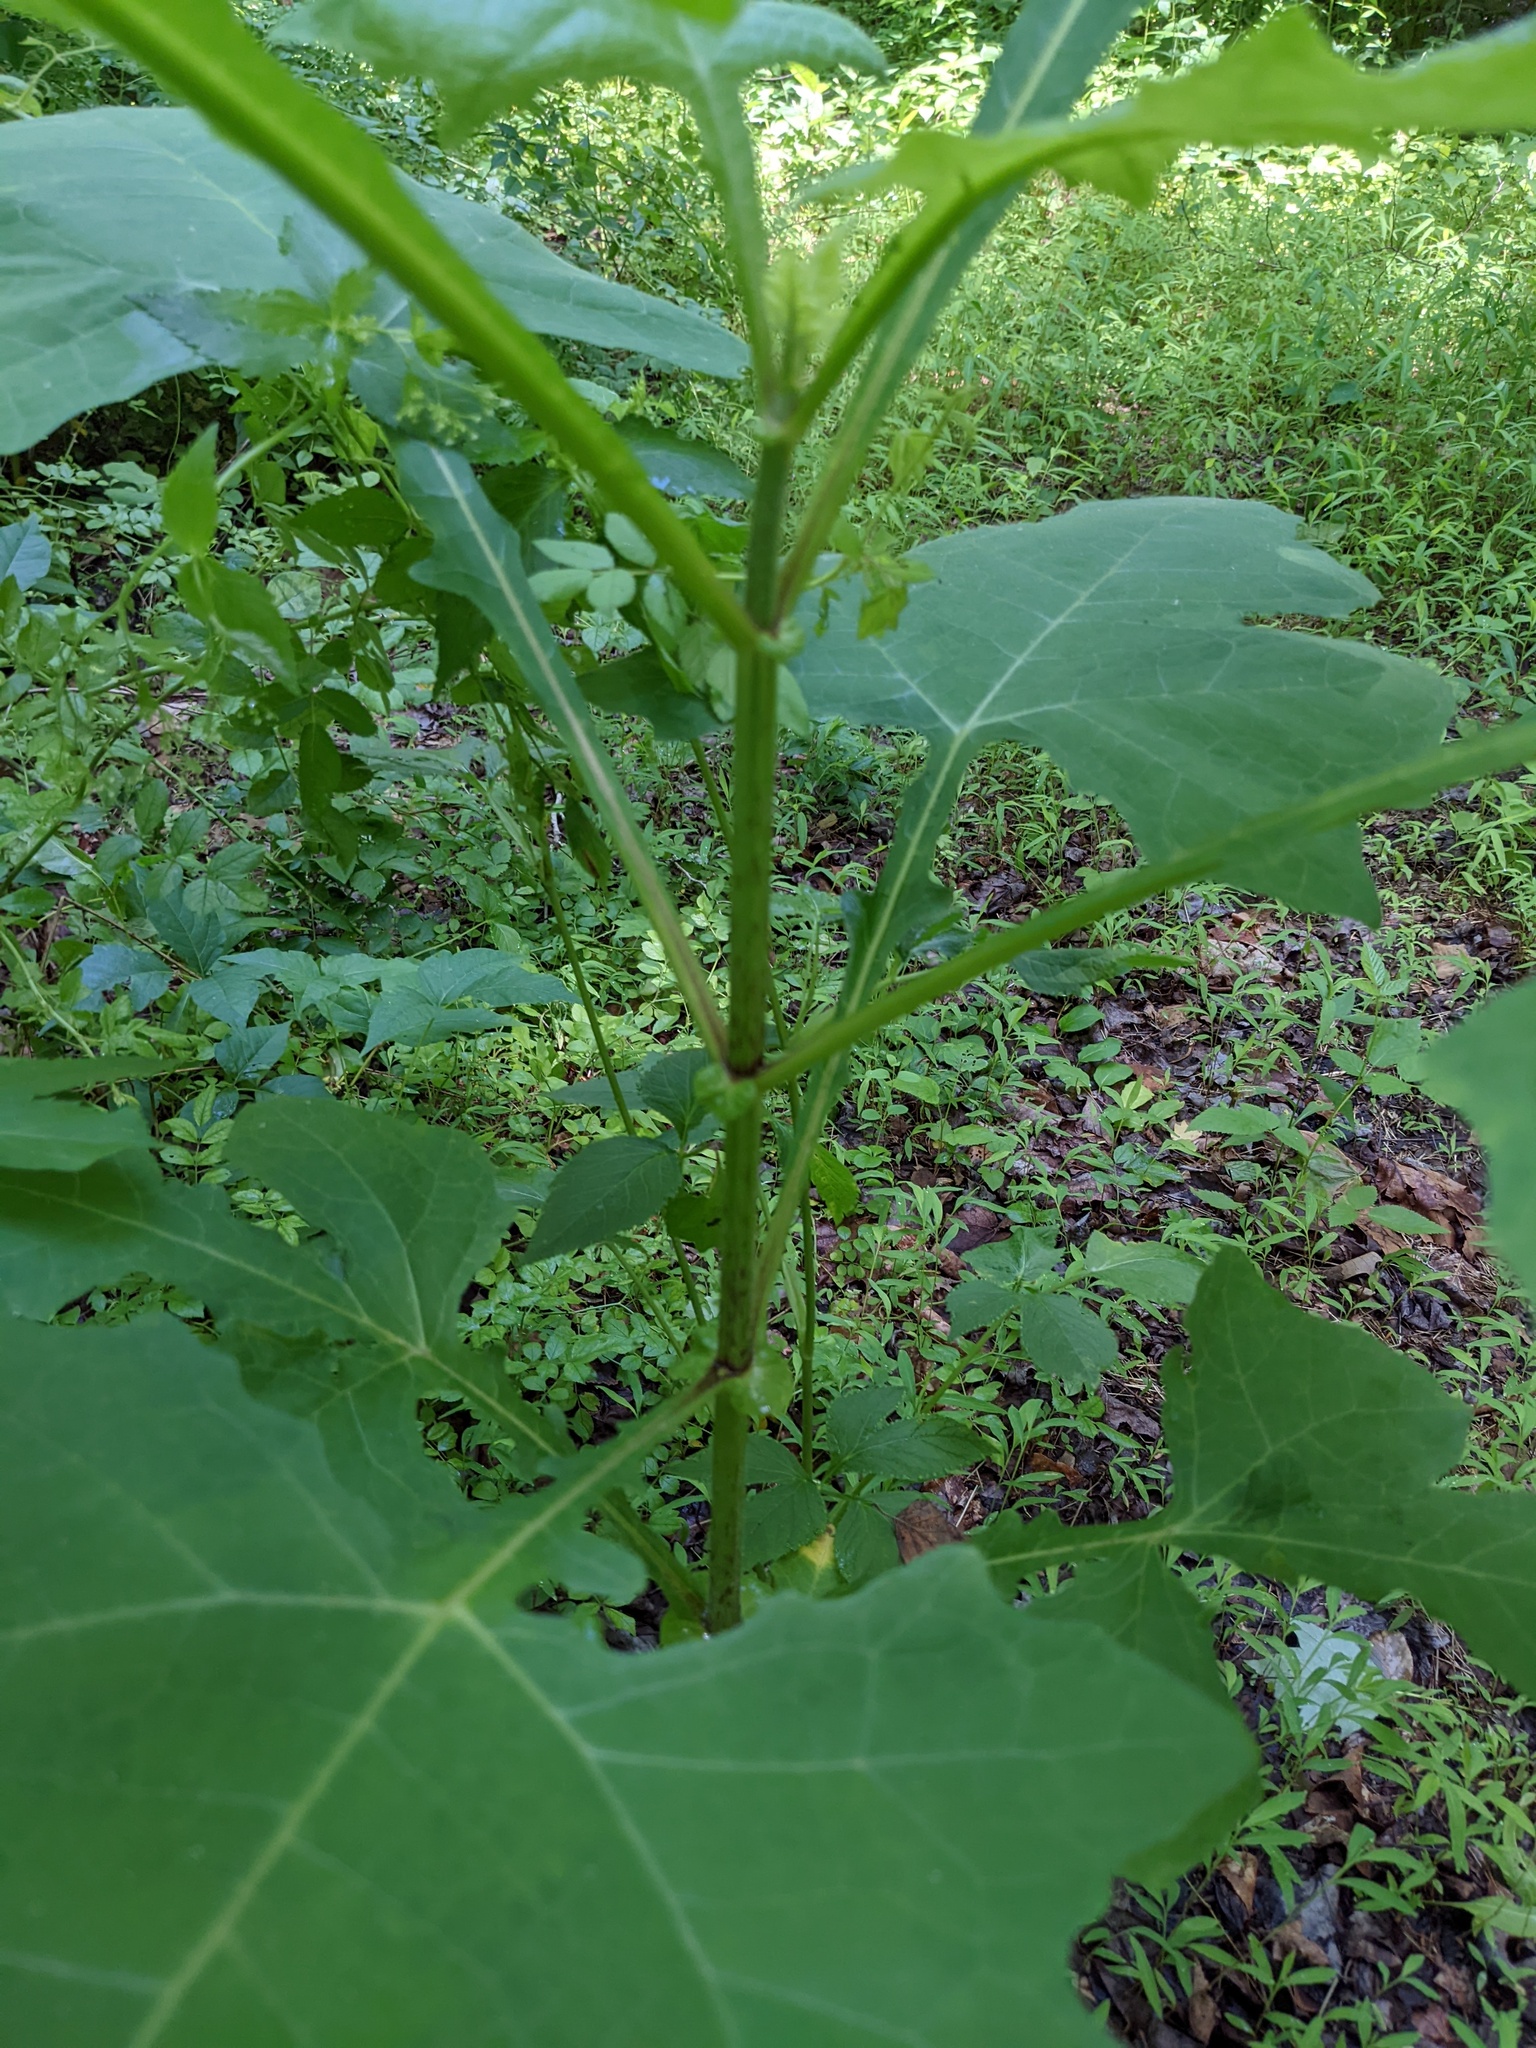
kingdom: Plantae
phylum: Tracheophyta
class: Magnoliopsida
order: Asterales
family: Asteraceae
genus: Smallanthus
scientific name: Smallanthus uvedalia
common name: Bear's-foot
